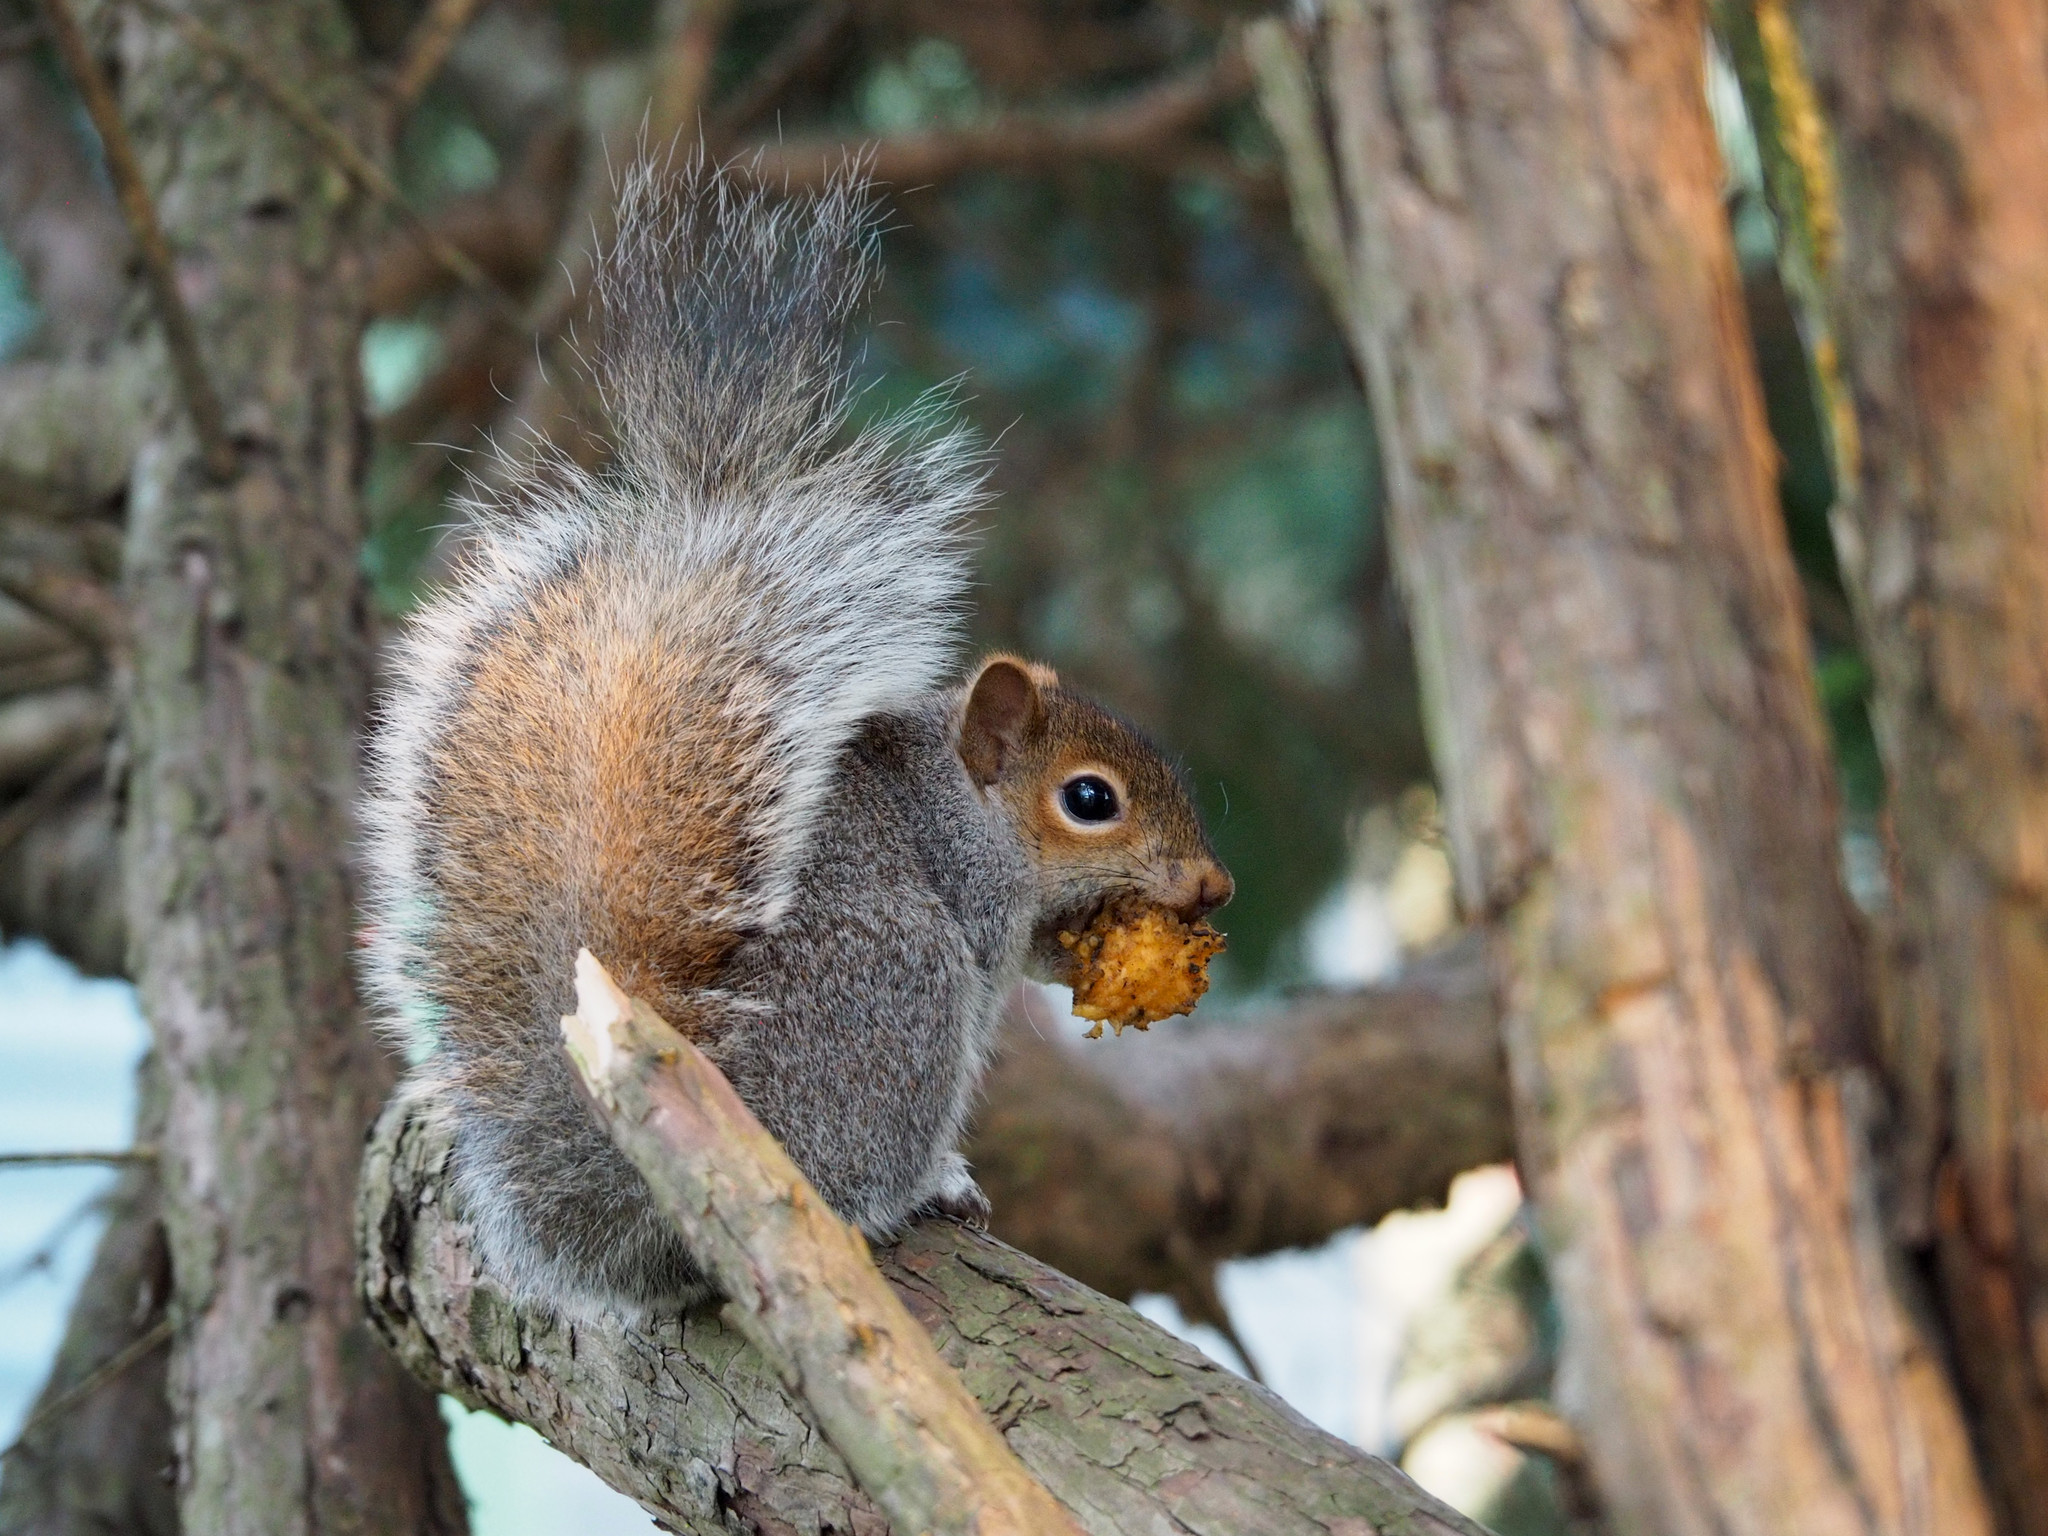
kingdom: Animalia
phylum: Chordata
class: Mammalia
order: Rodentia
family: Sciuridae
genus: Sciurus
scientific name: Sciurus carolinensis
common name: Eastern gray squirrel
